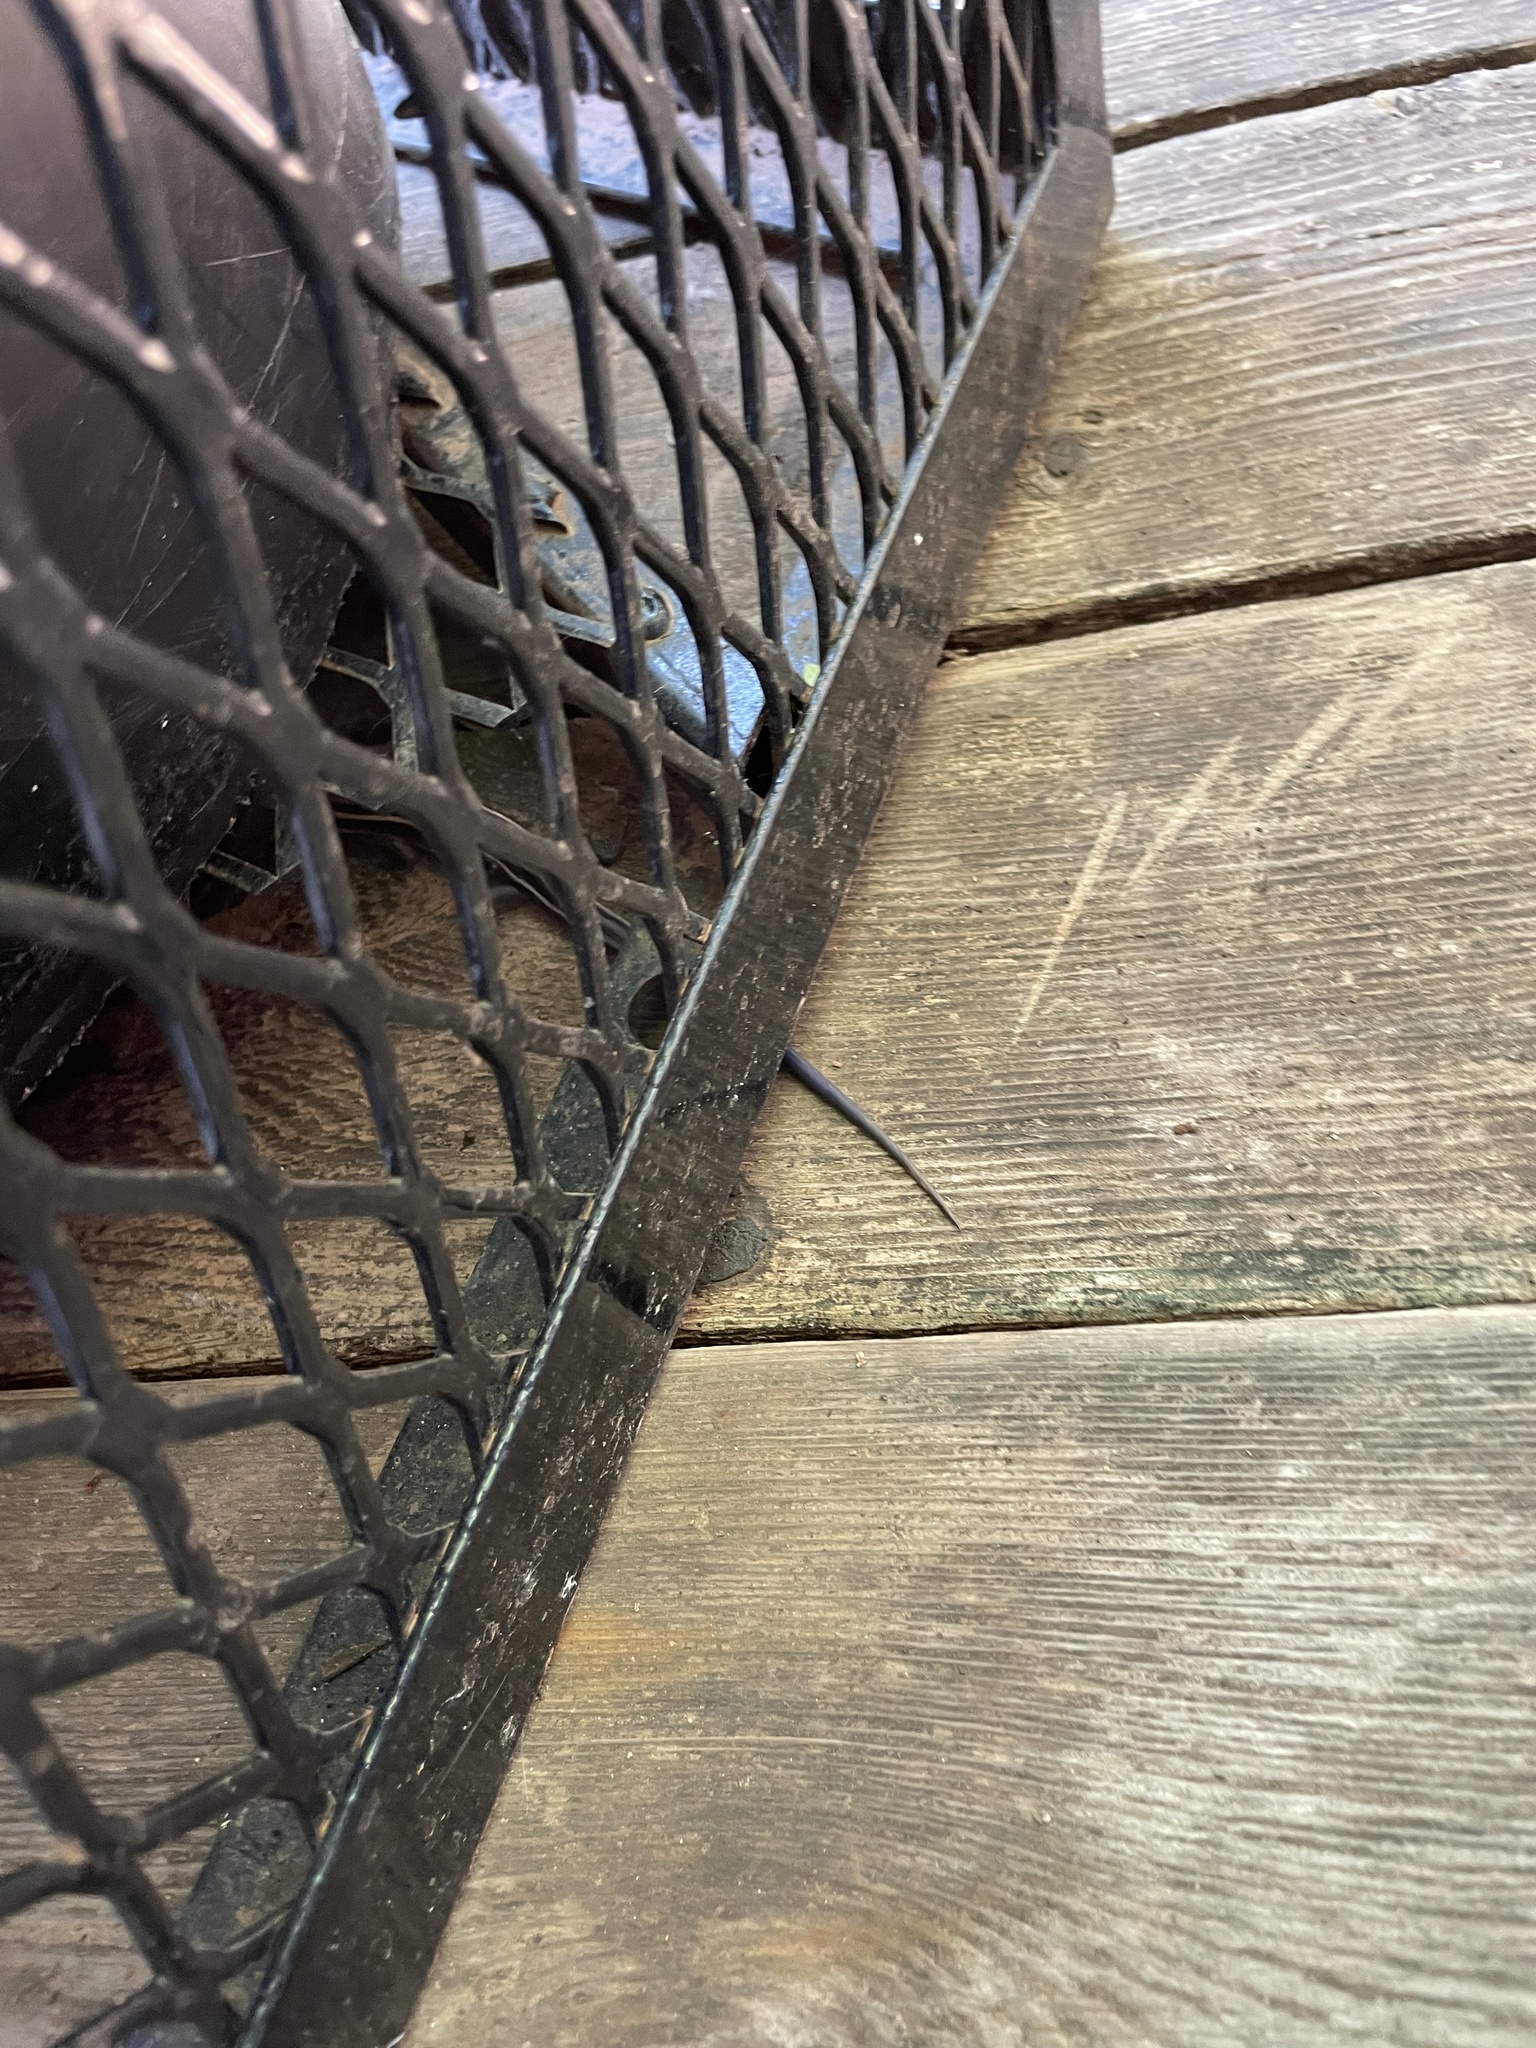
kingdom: Animalia
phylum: Chordata
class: Squamata
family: Scincidae
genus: Plestiodon
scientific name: Plestiodon fasciatus
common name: Five-lined skink
